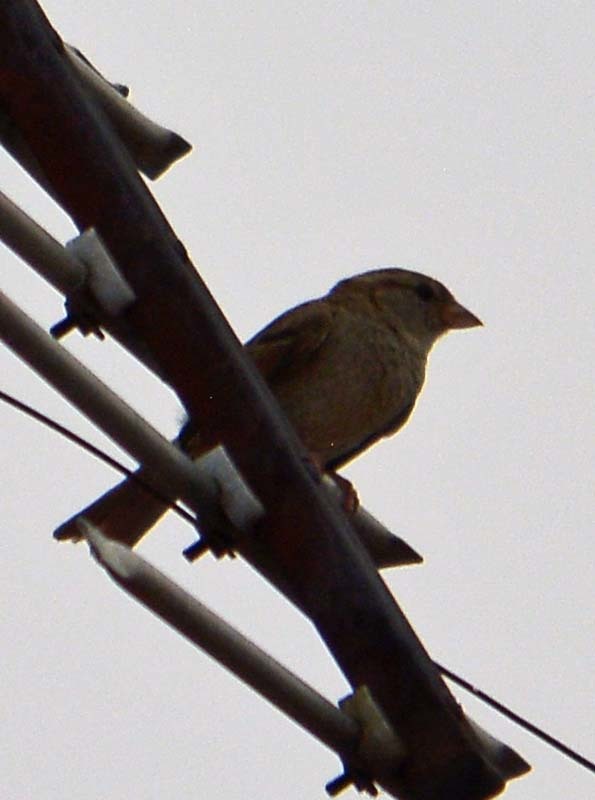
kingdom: Animalia
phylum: Chordata
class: Aves
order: Passeriformes
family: Passeridae
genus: Passer
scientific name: Passer domesticus
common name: House sparrow
